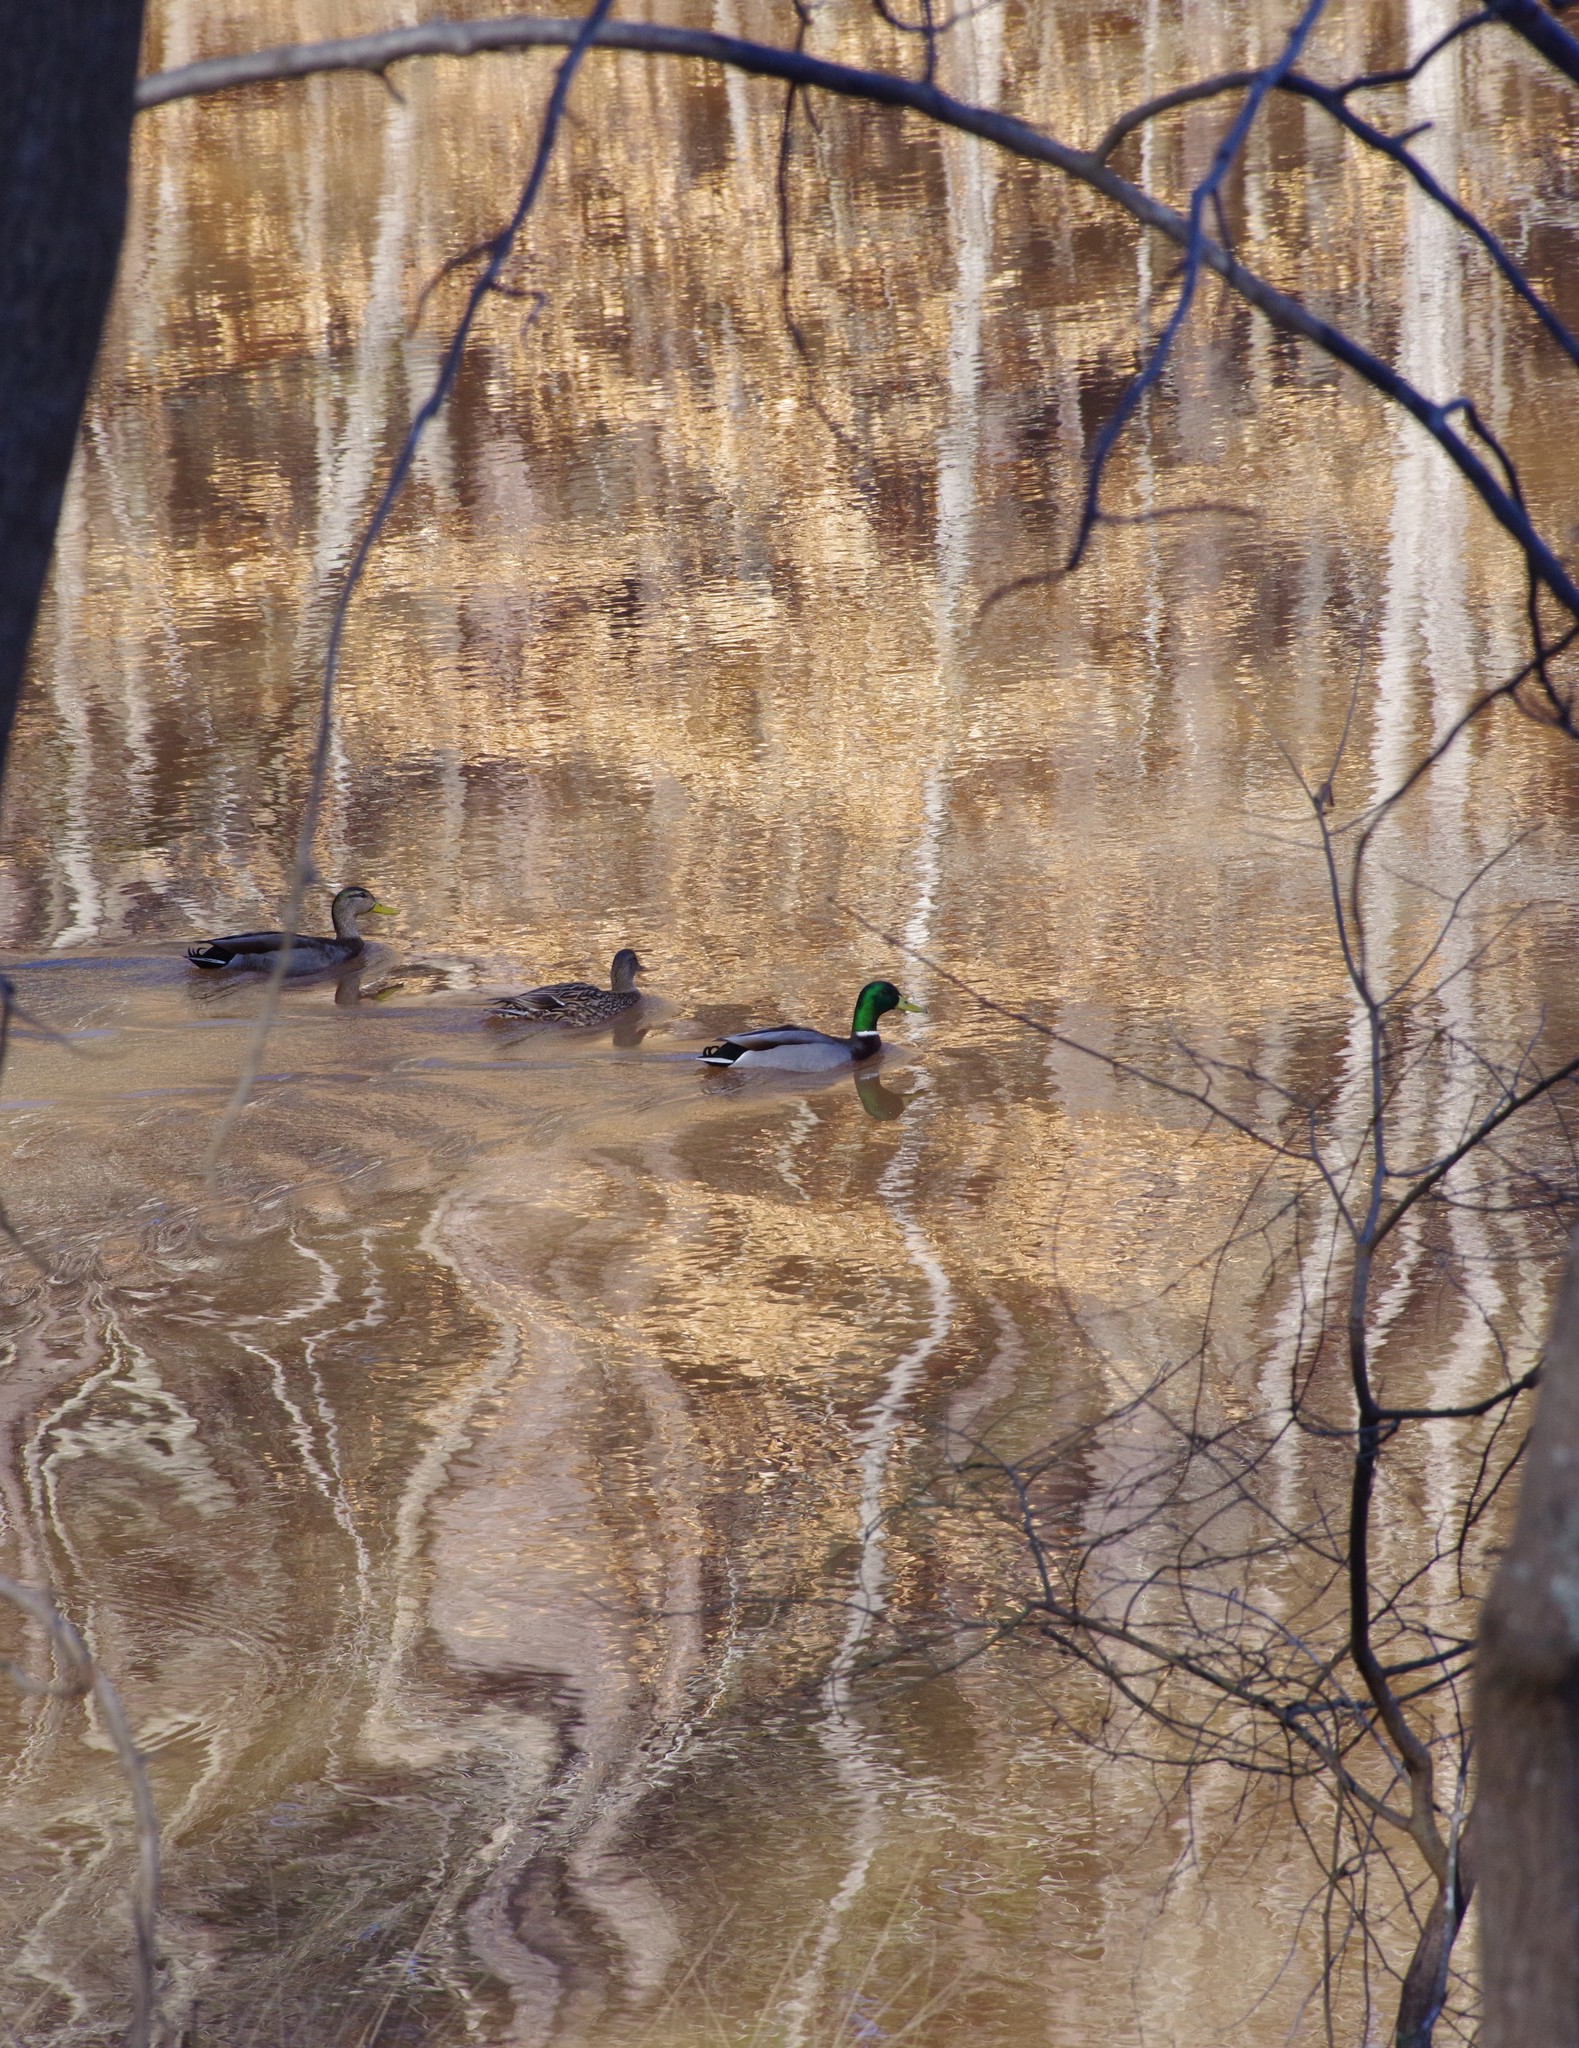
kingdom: Animalia
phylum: Chordata
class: Aves
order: Anseriformes
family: Anatidae
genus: Anas
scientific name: Anas platyrhynchos
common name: Mallard
